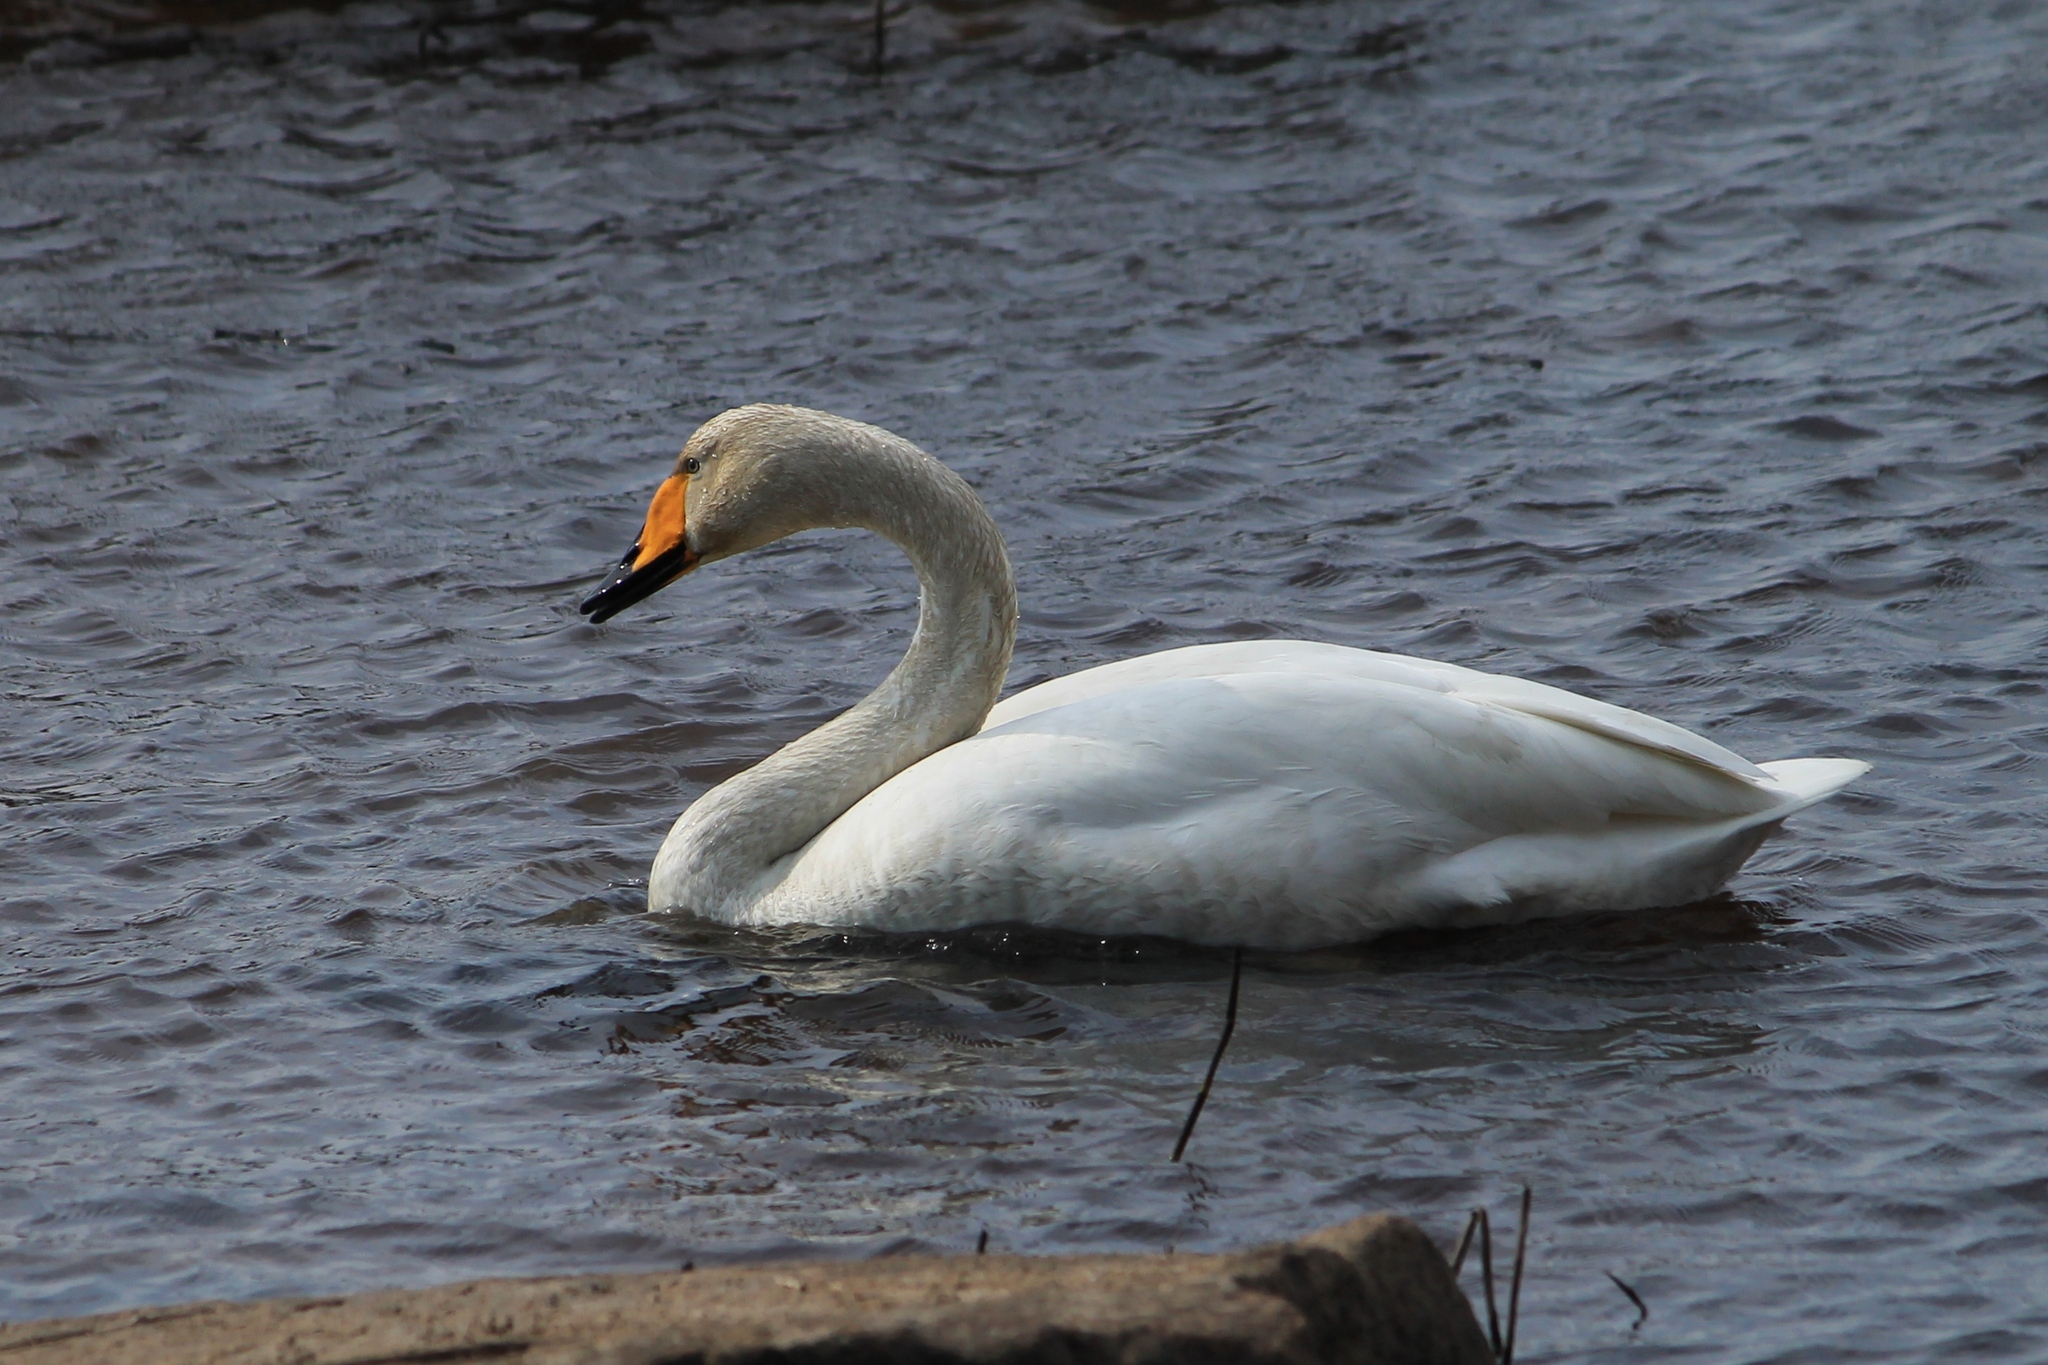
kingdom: Animalia
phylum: Chordata
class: Aves
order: Anseriformes
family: Anatidae
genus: Cygnus
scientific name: Cygnus cygnus
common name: Whooper swan
